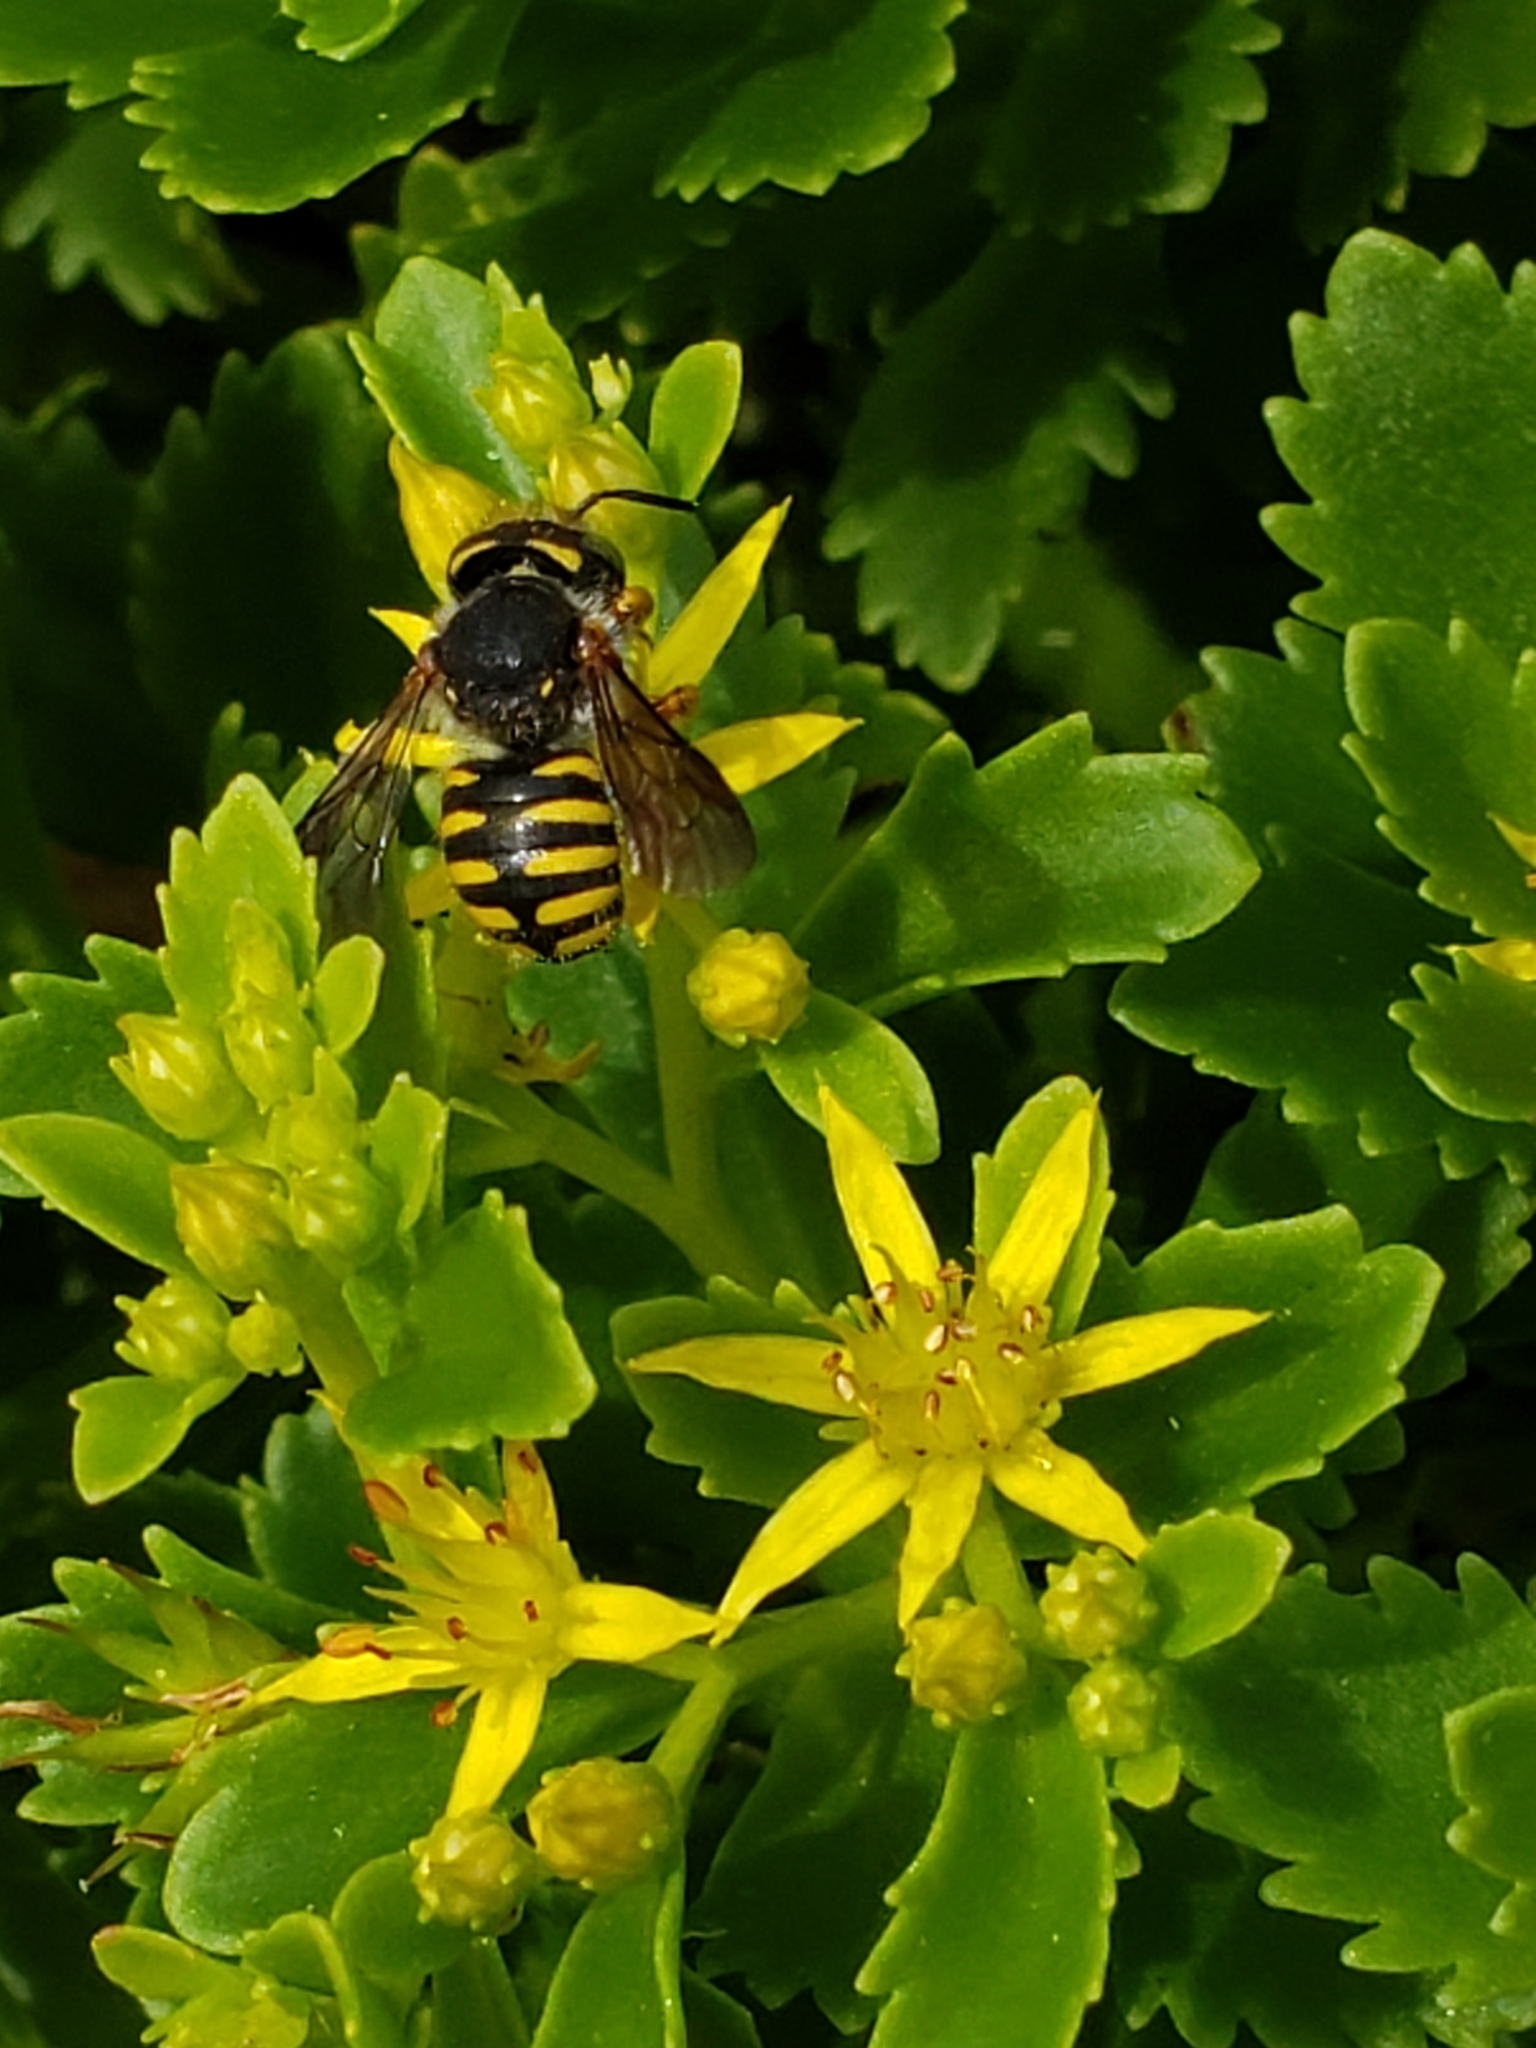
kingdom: Animalia
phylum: Arthropoda
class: Insecta
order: Hymenoptera
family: Megachilidae
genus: Anthidium
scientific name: Anthidium oblongatum
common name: Oblong wool carder bee
